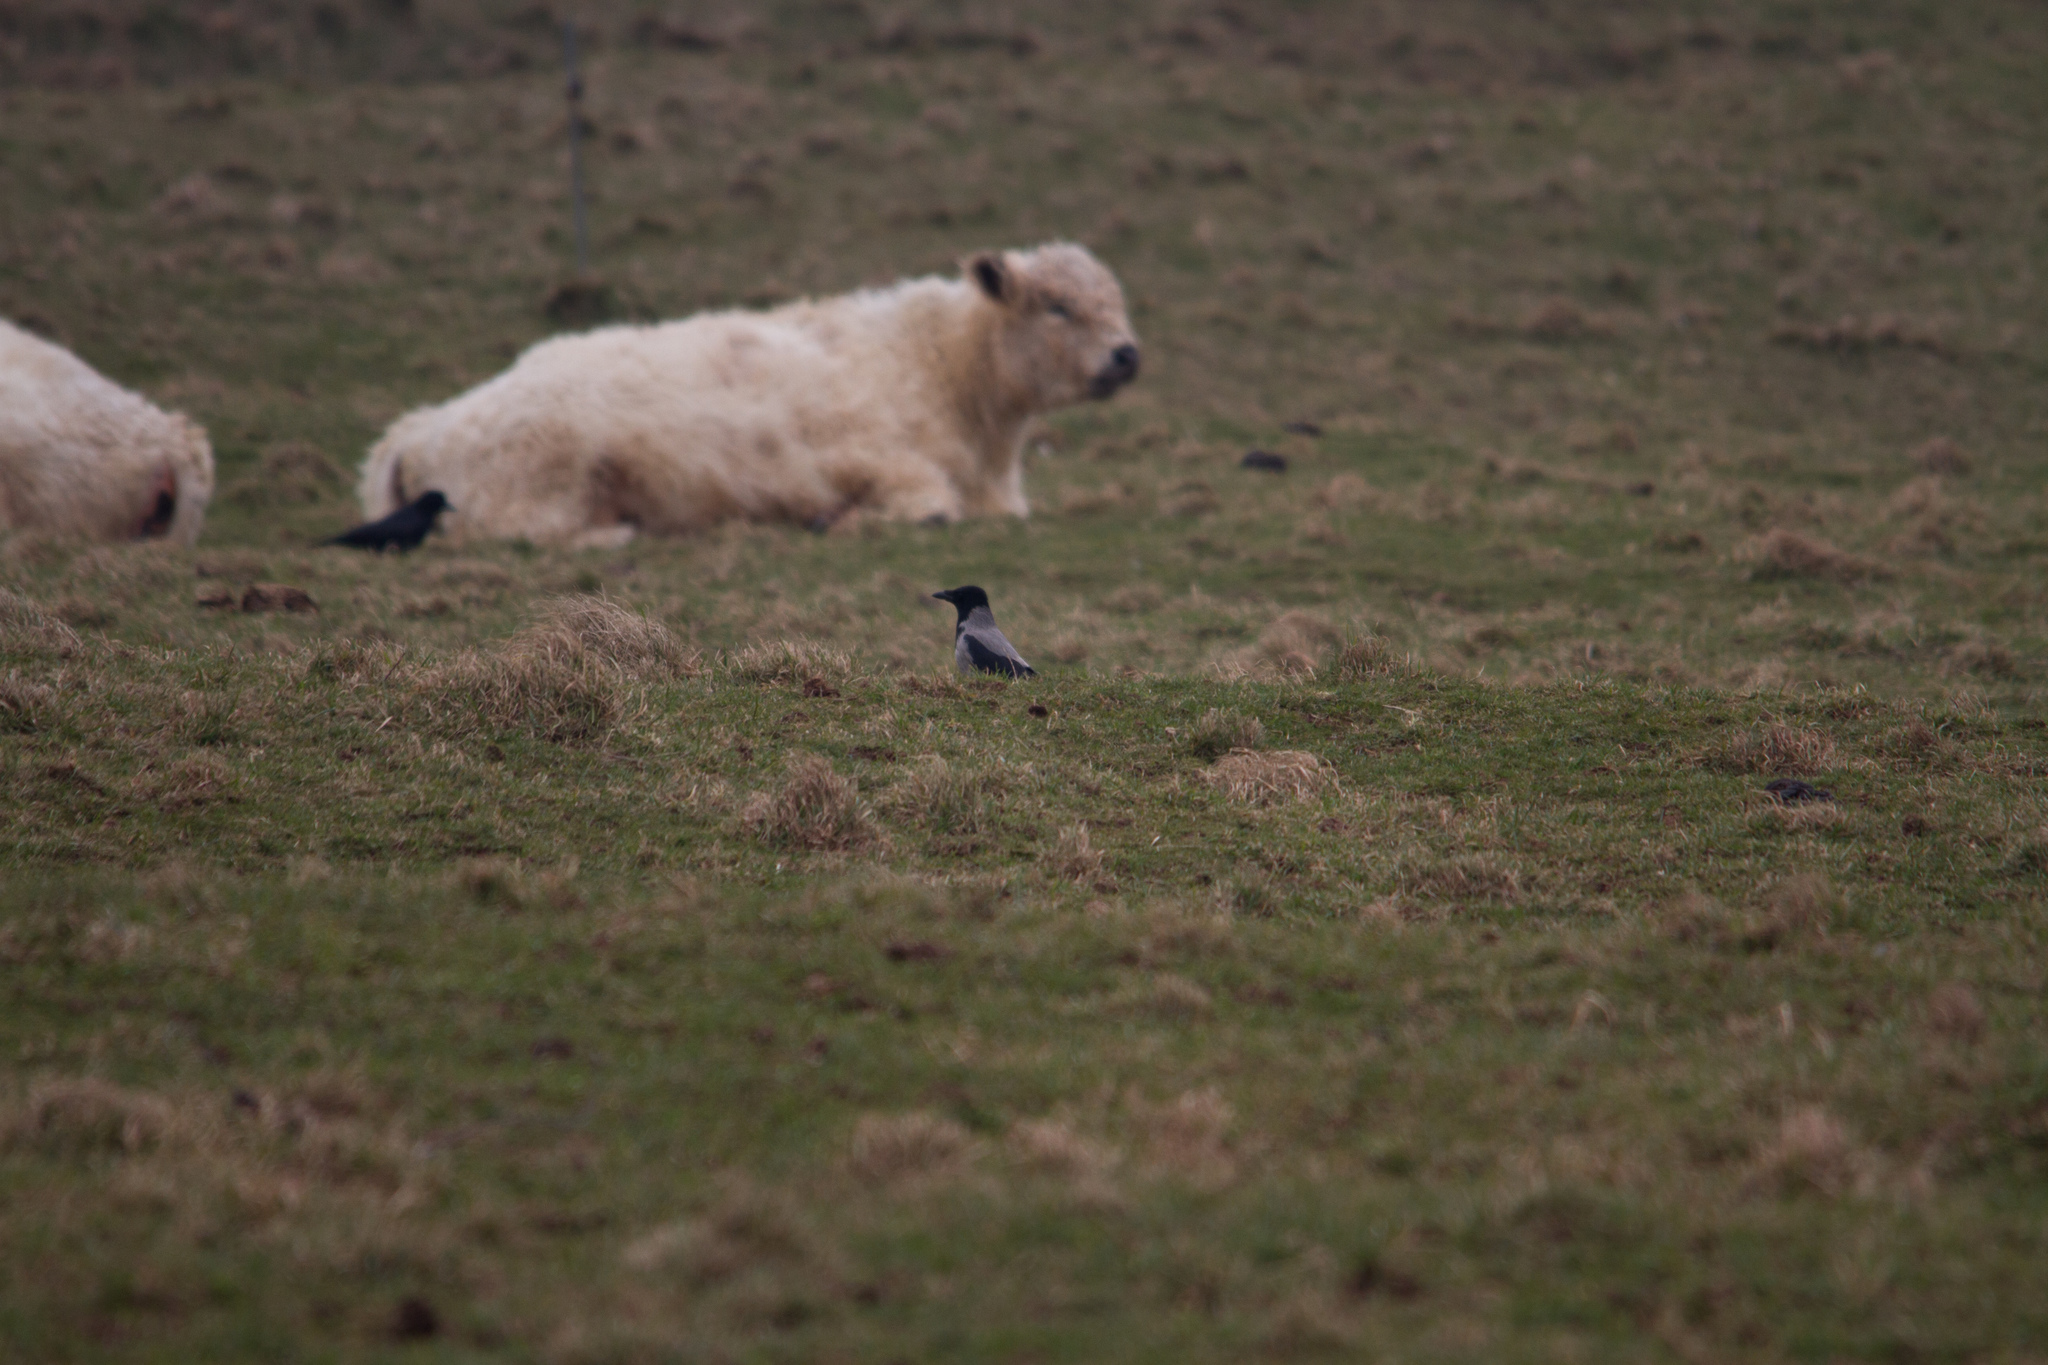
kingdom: Animalia
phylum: Chordata
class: Aves
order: Passeriformes
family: Corvidae
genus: Corvus
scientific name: Corvus cornix
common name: Hooded crow
